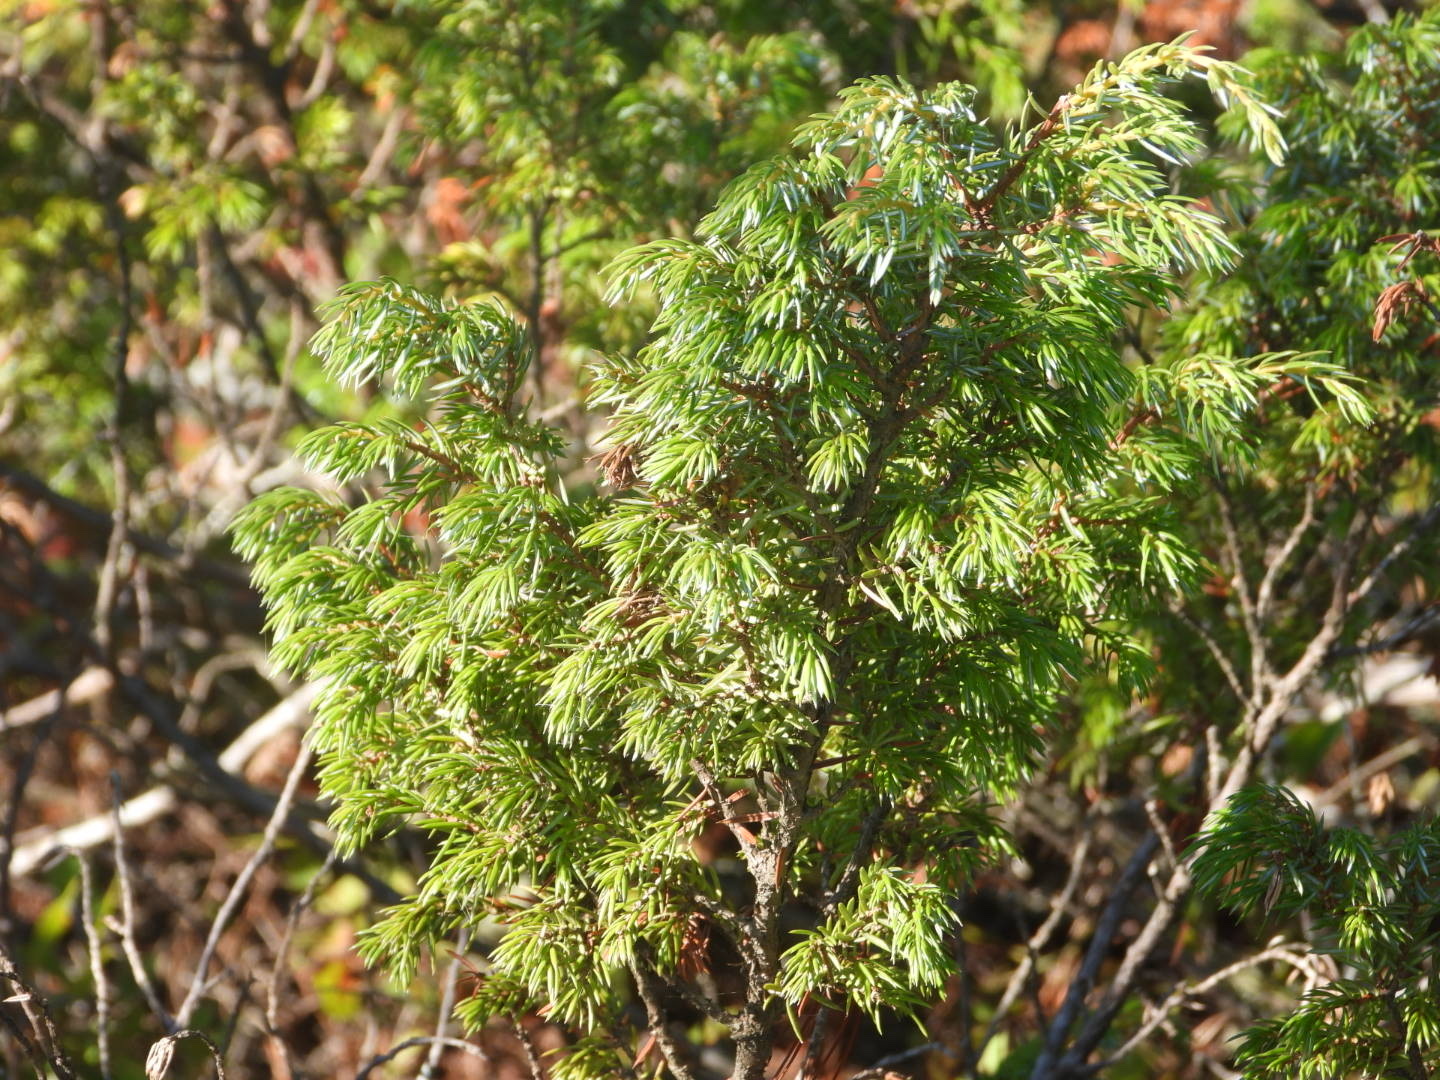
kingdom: Plantae
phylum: Tracheophyta
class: Pinopsida
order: Pinales
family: Cupressaceae
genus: Juniperus
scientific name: Juniperus communis
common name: Common juniper
